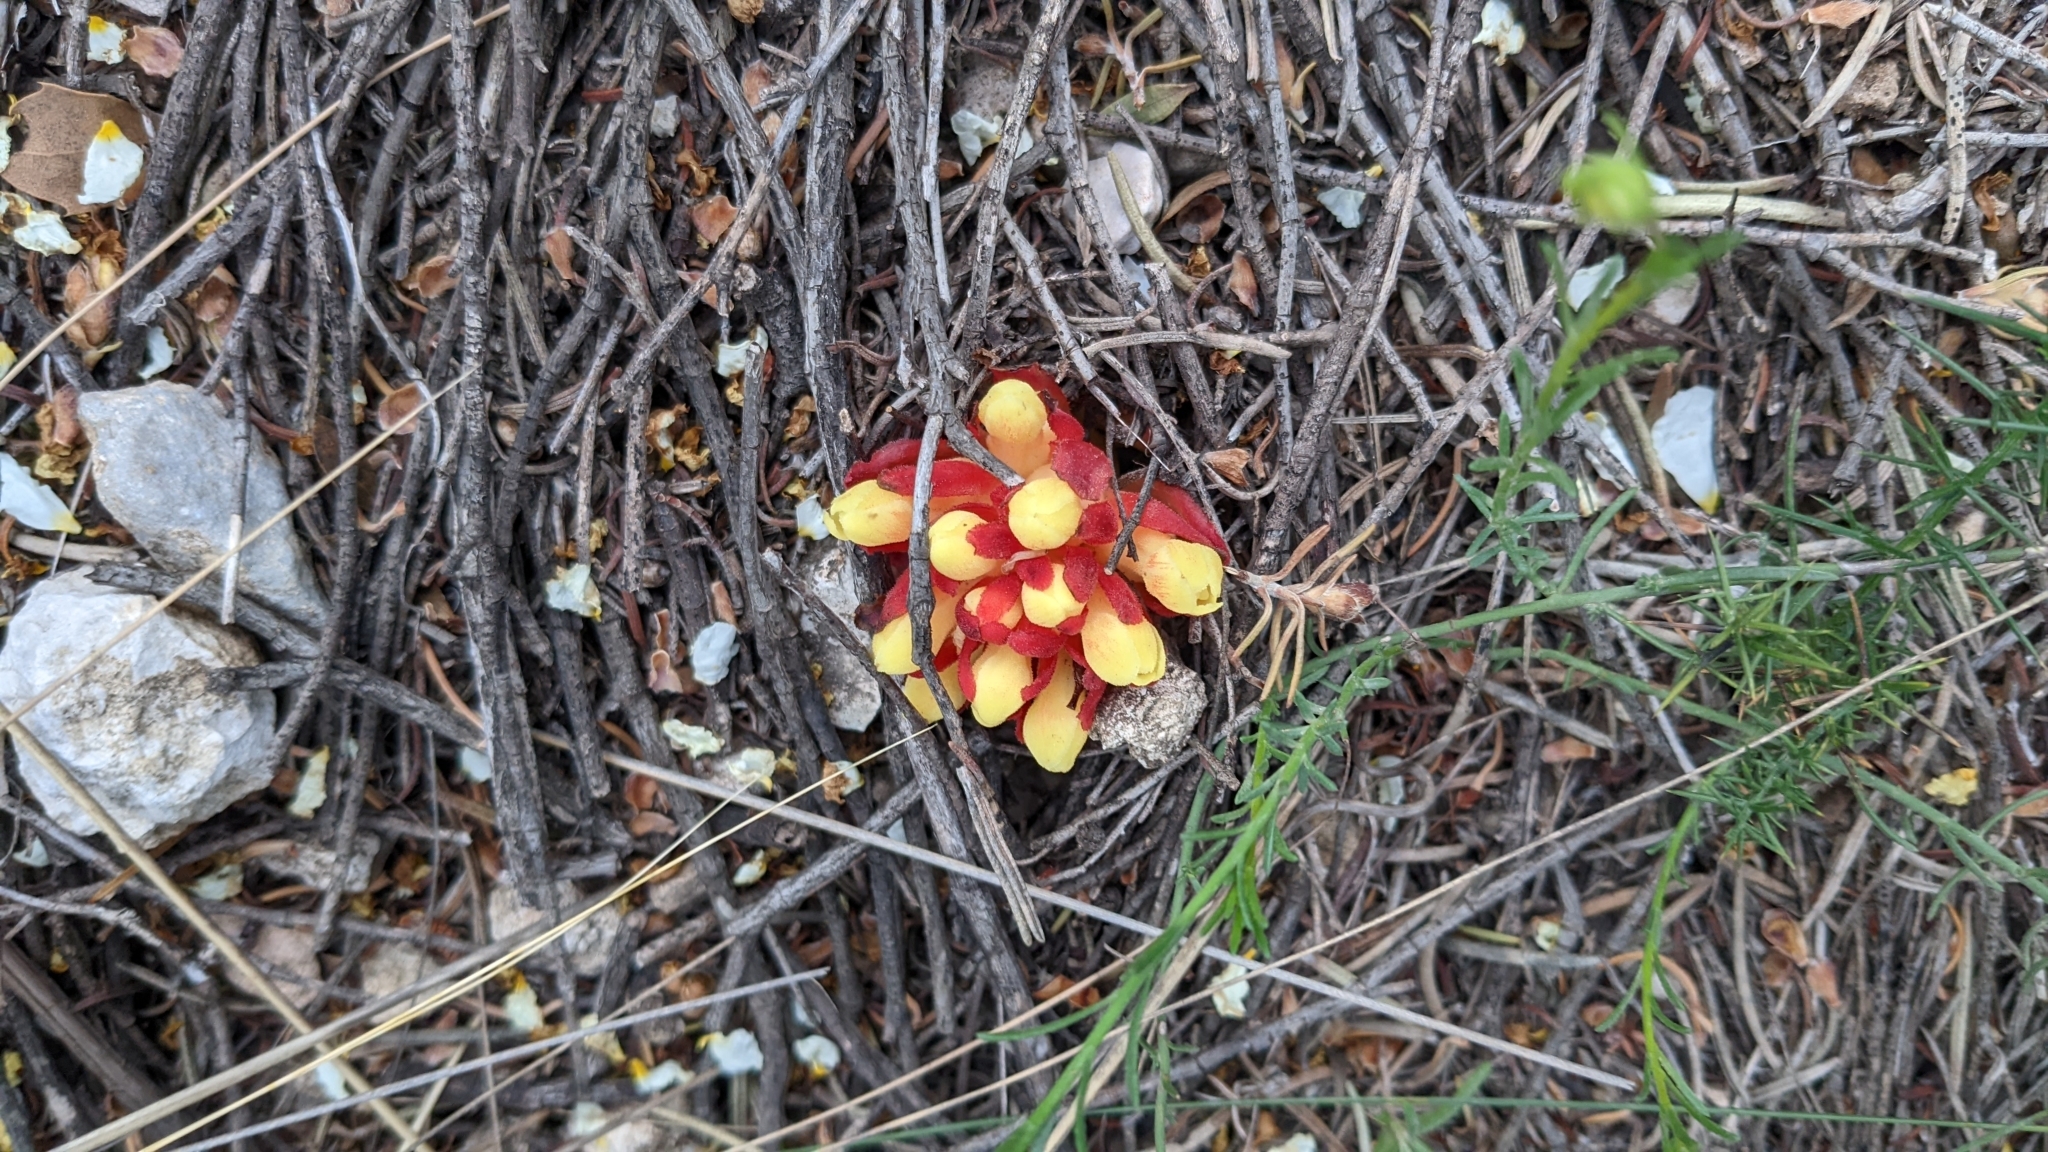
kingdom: Plantae
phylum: Tracheophyta
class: Magnoliopsida
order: Malvales
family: Cytinaceae
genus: Cytinus
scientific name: Cytinus hypocistis
